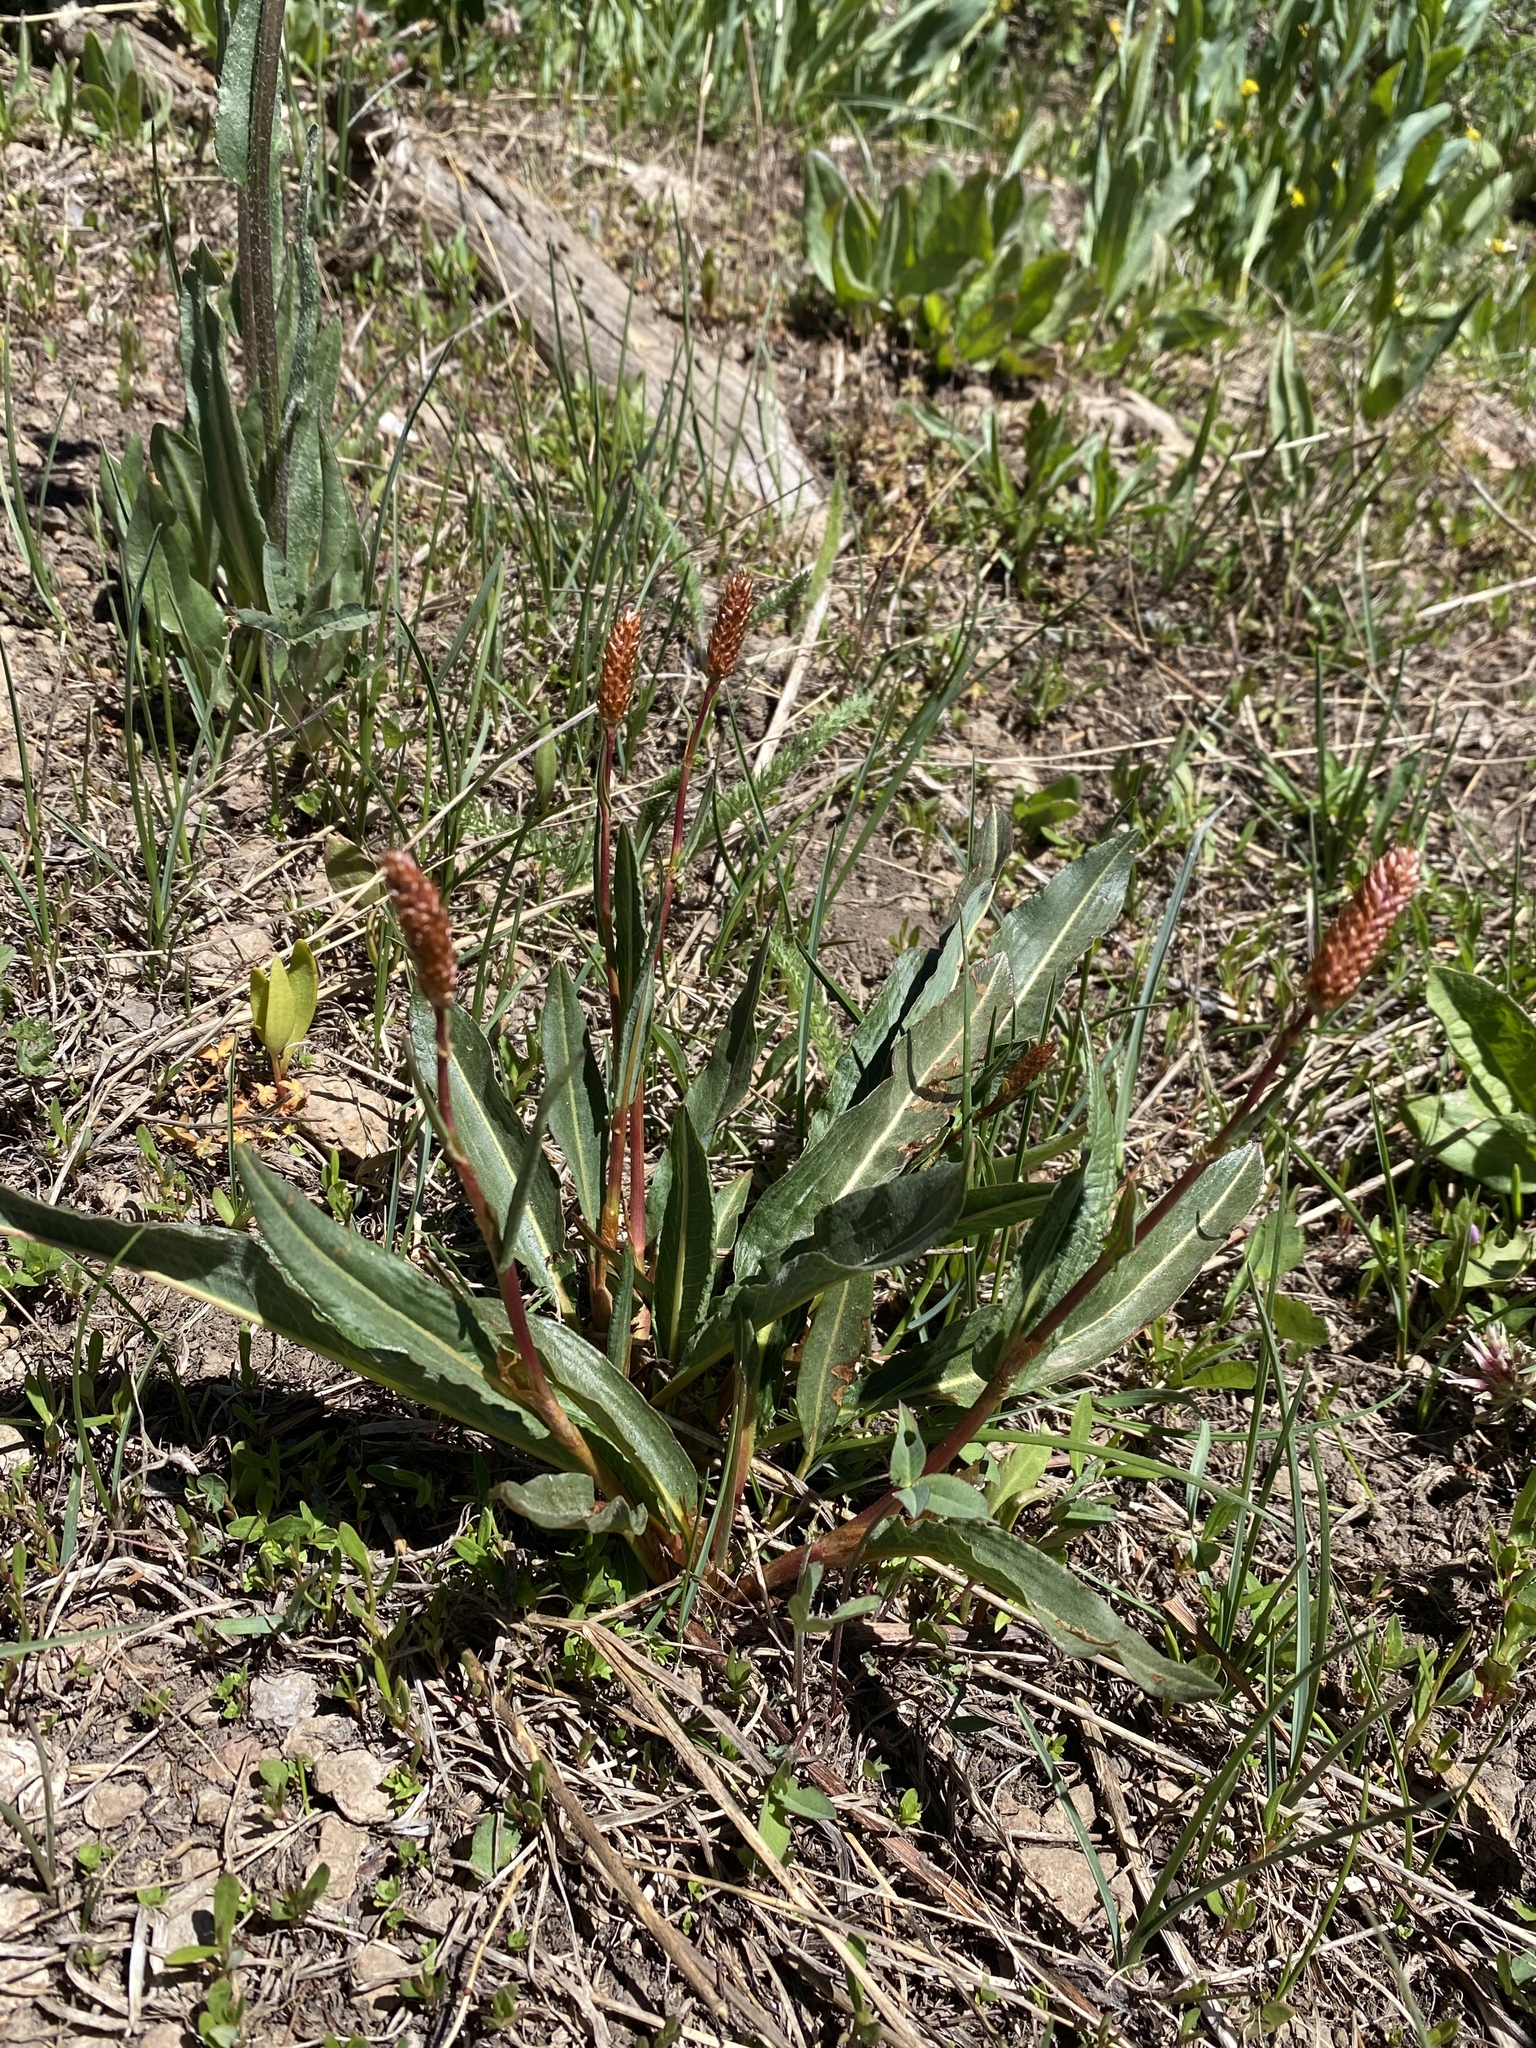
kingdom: Plantae
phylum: Tracheophyta
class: Magnoliopsida
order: Caryophyllales
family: Polygonaceae
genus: Bistorta
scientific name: Bistorta bistortoides
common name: American bistort
